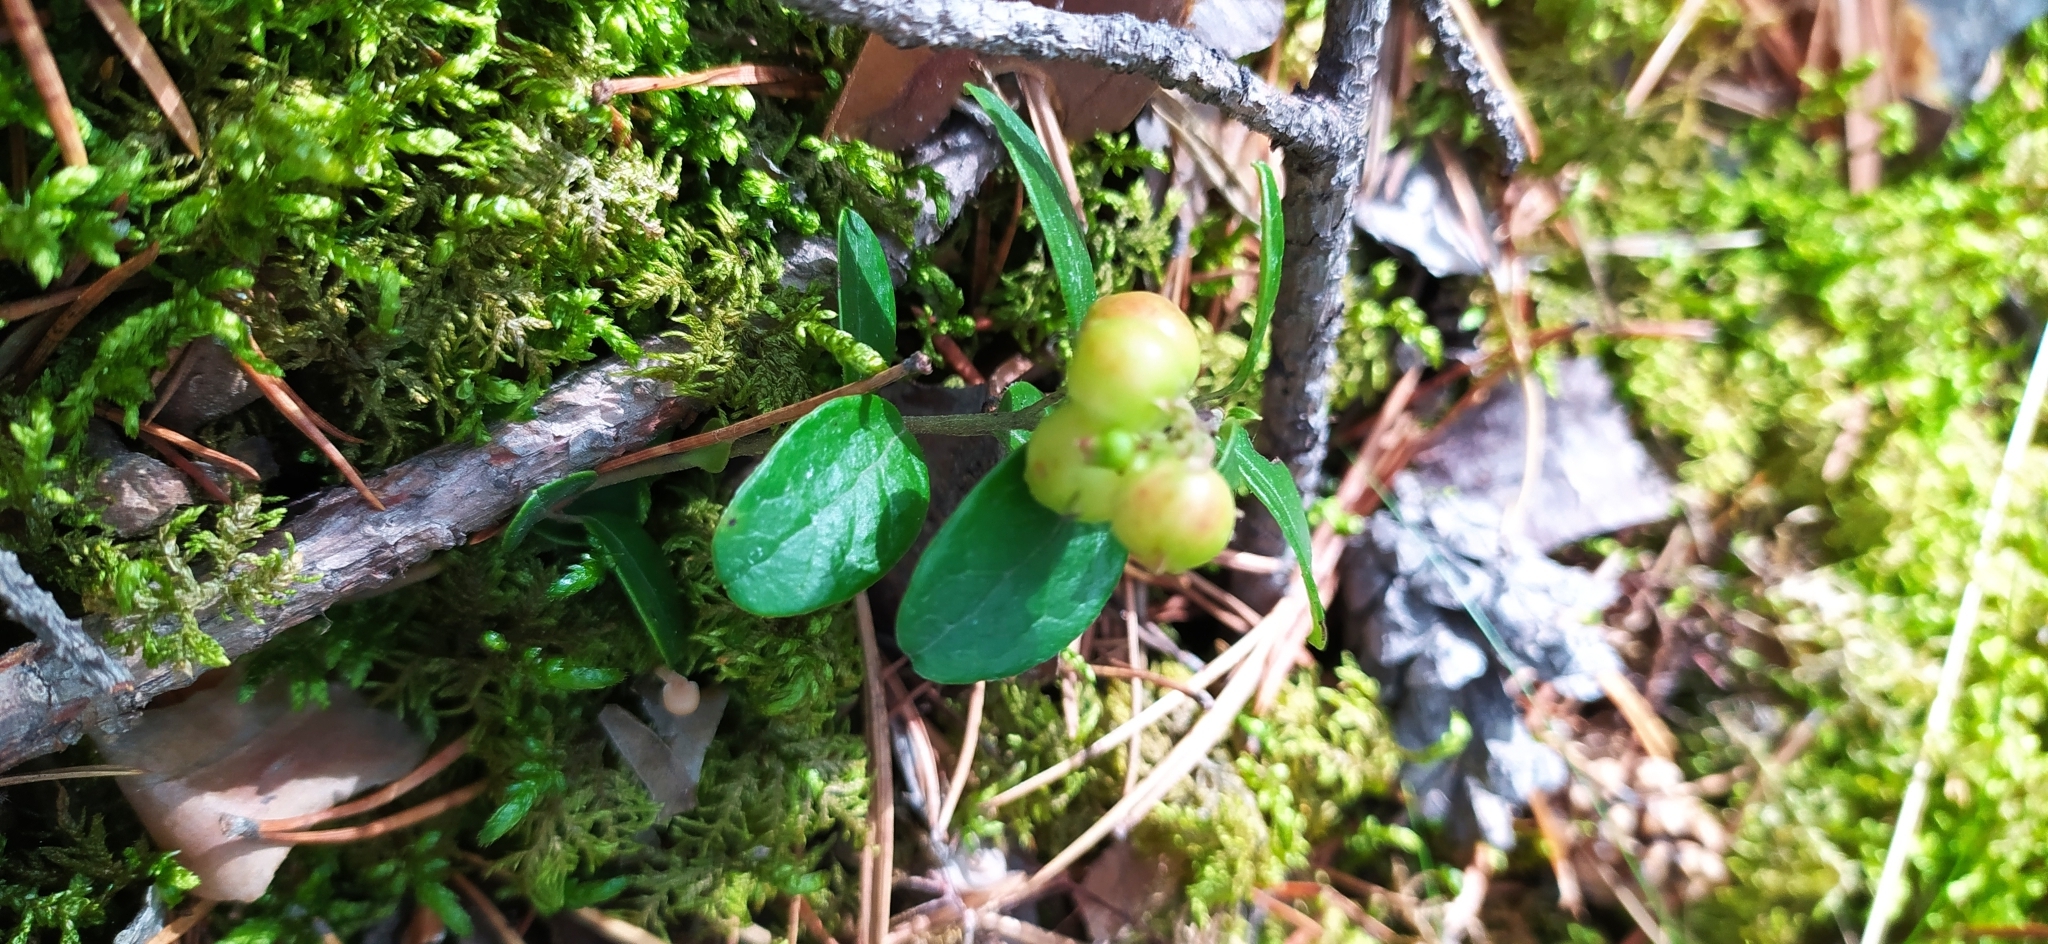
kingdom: Plantae
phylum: Tracheophyta
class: Magnoliopsida
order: Ericales
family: Ericaceae
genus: Vaccinium
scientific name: Vaccinium vitis-idaea
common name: Cowberry
